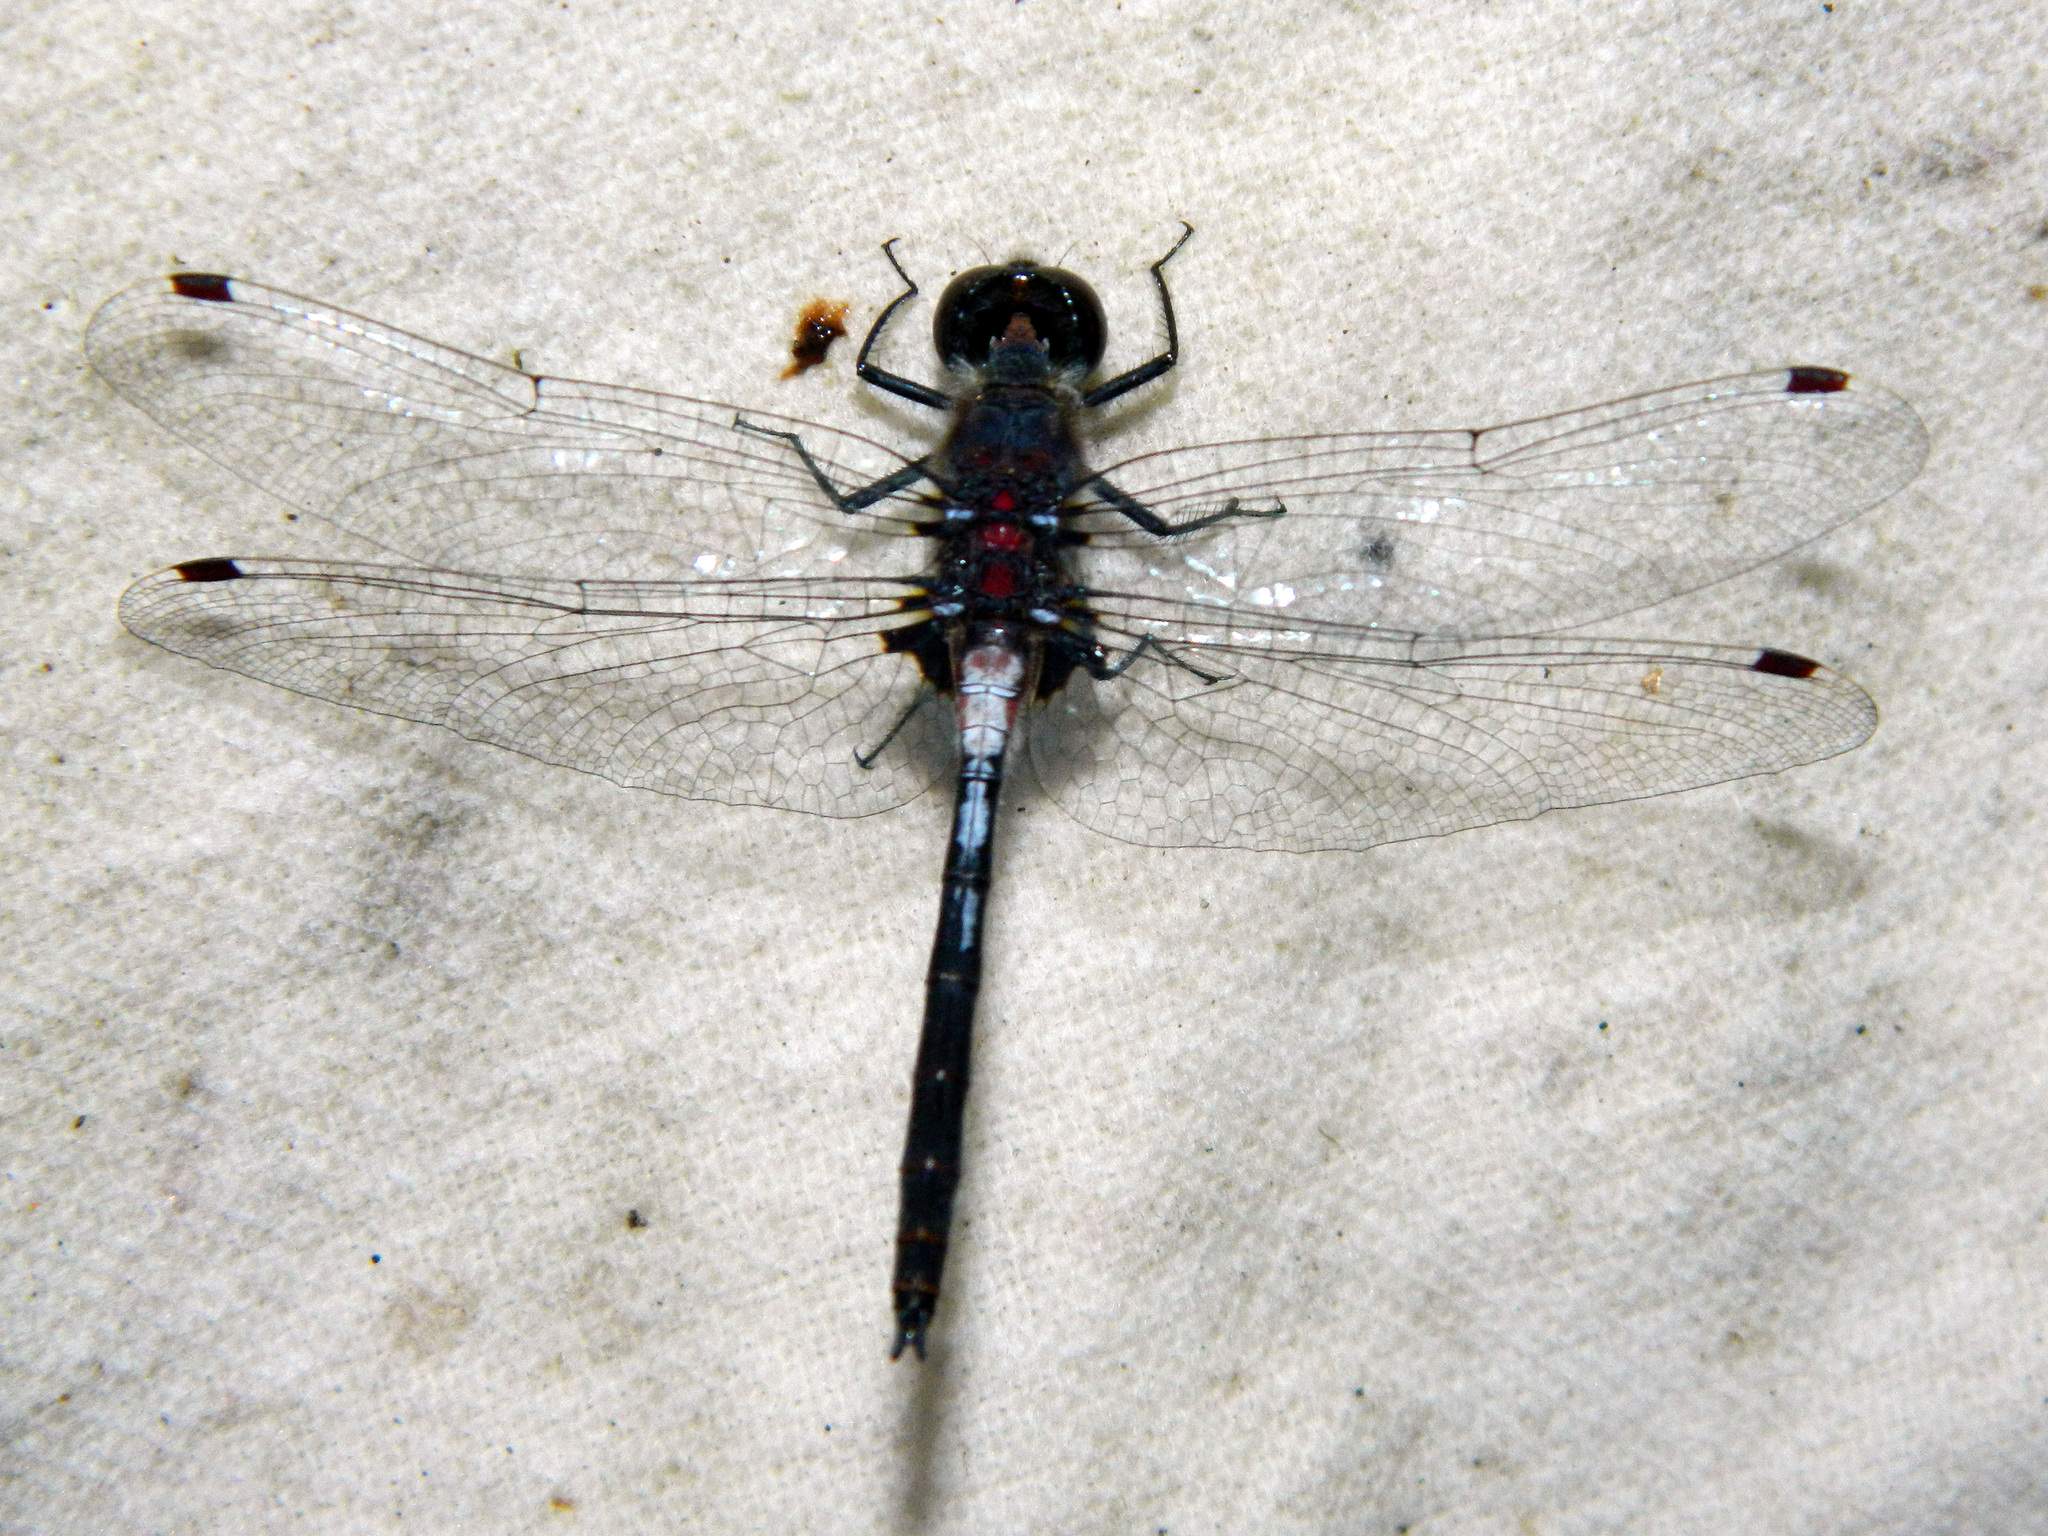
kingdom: Animalia
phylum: Arthropoda
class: Insecta
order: Odonata
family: Libellulidae
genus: Leucorrhinia
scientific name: Leucorrhinia proxima
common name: Belted whiteface
